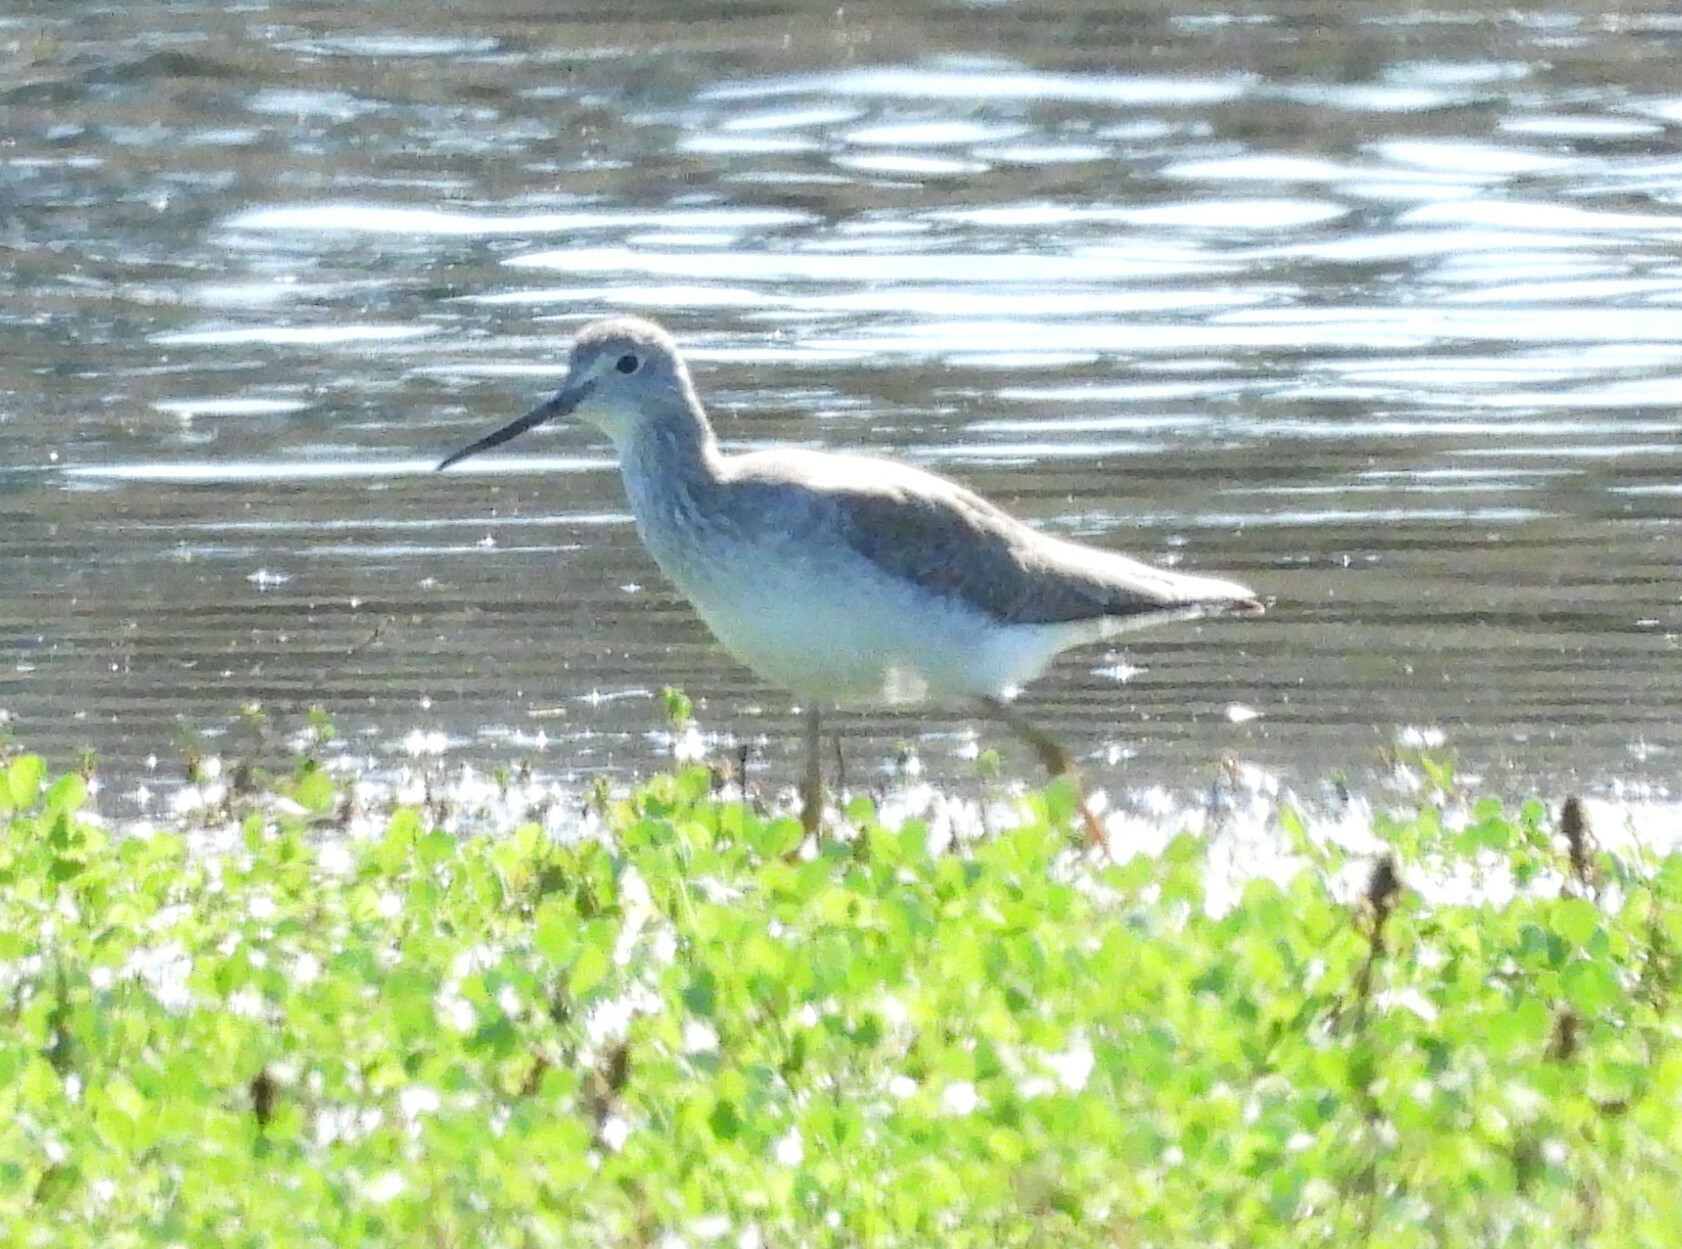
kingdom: Animalia
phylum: Chordata
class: Aves
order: Charadriiformes
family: Scolopacidae
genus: Tringa
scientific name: Tringa melanoleuca
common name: Greater yellowlegs
